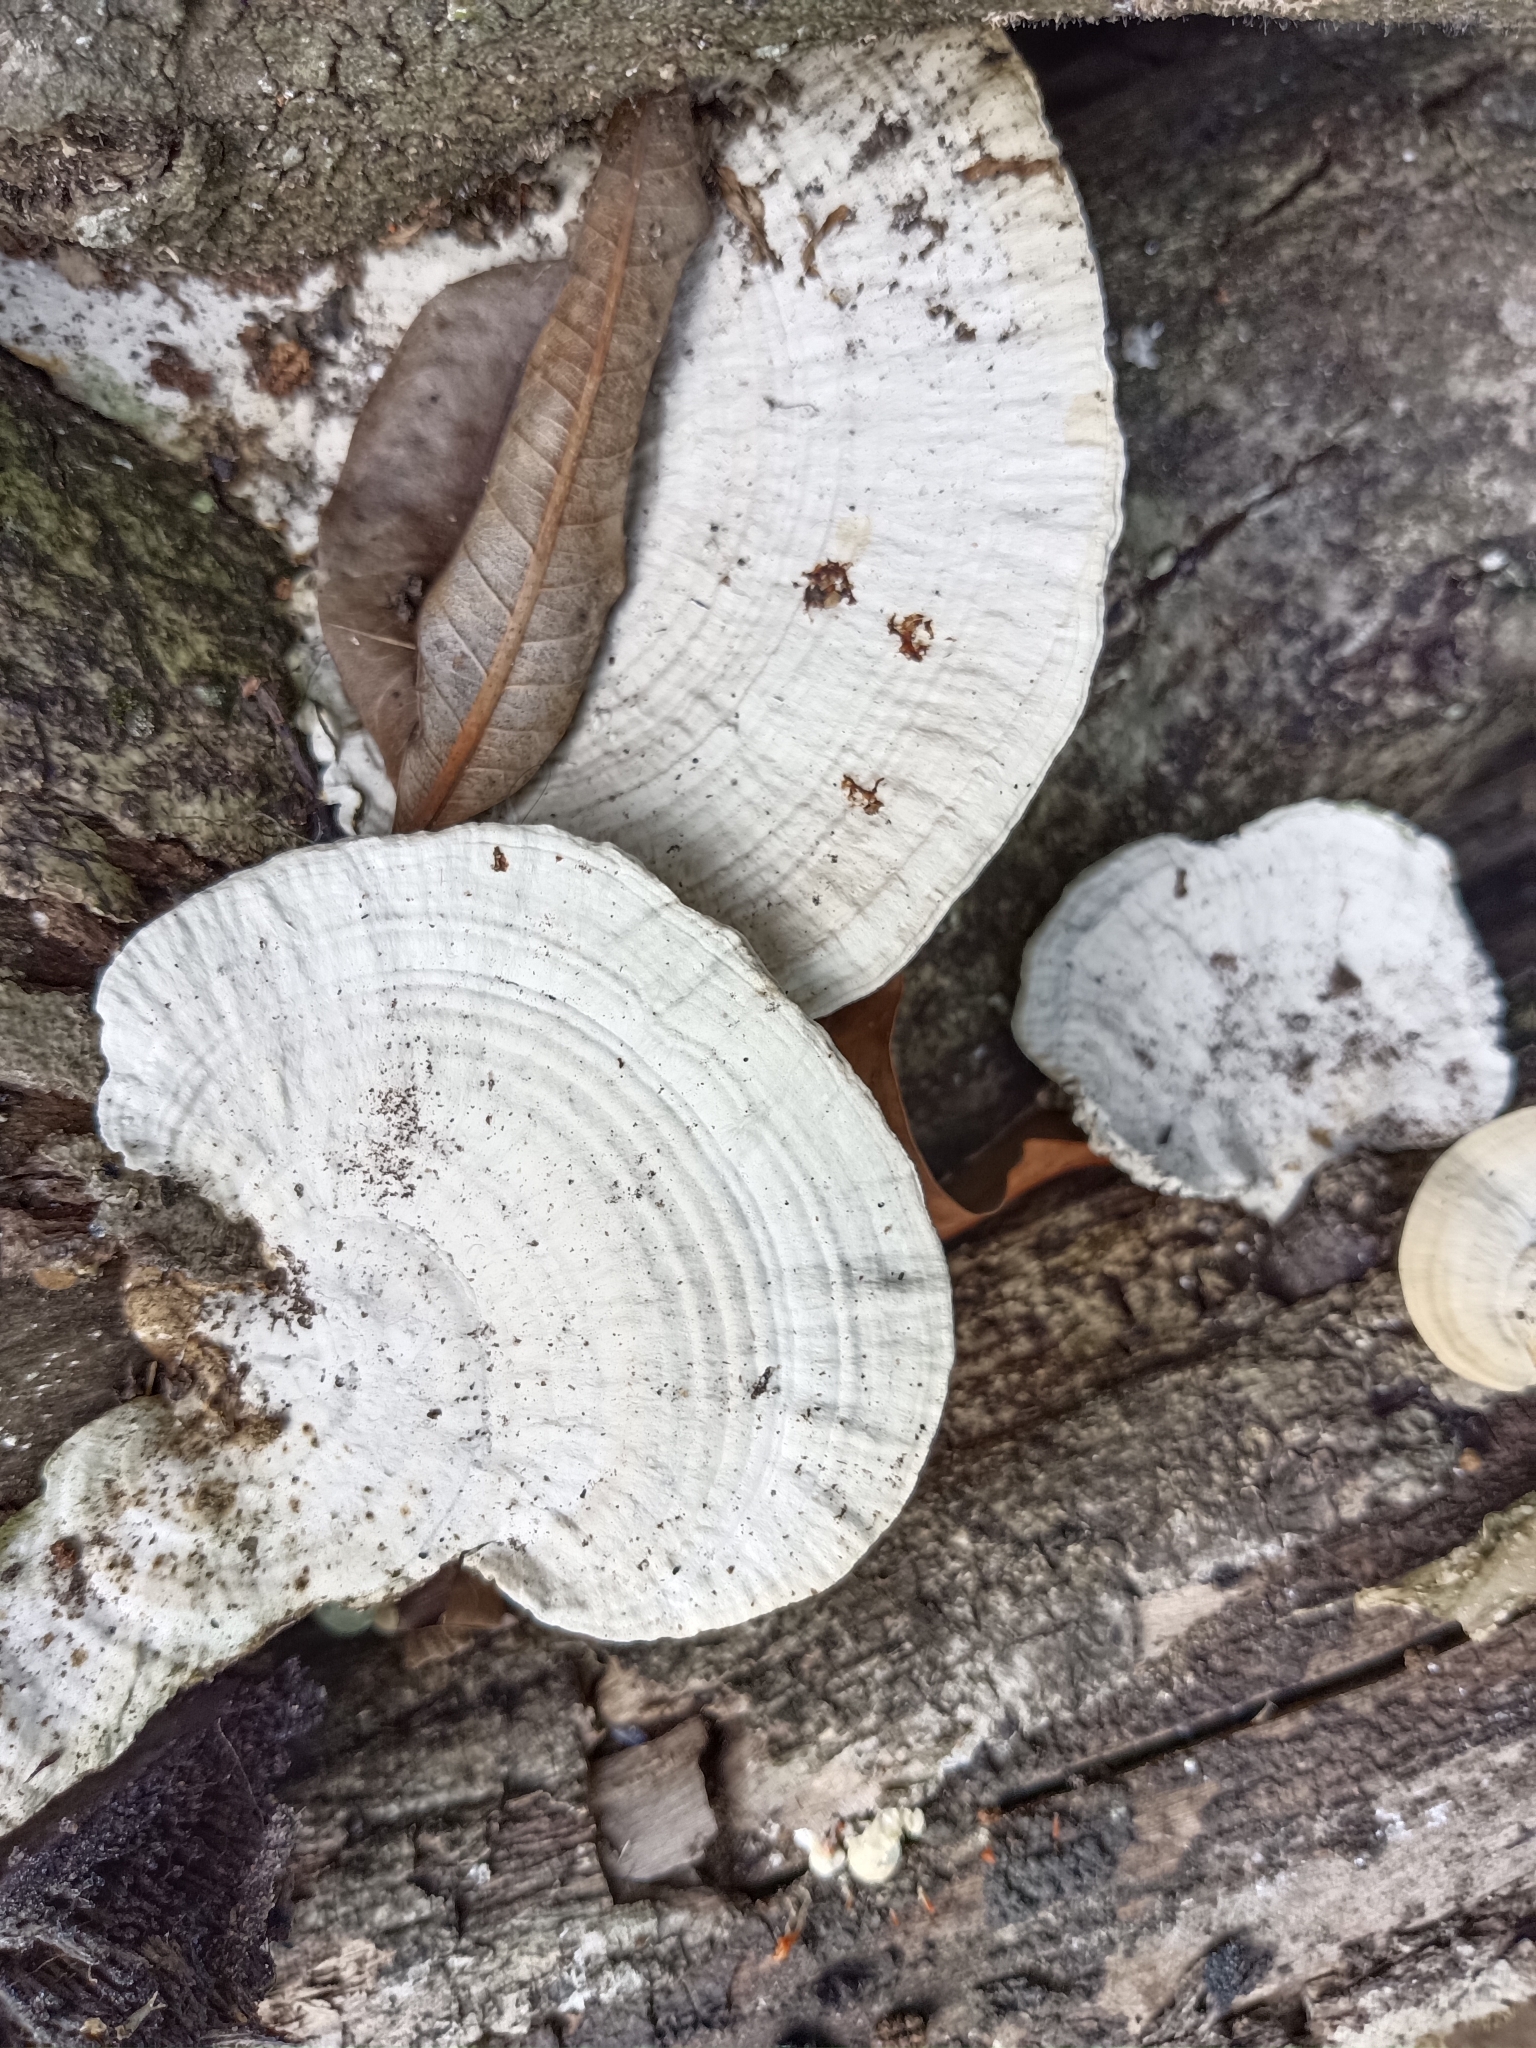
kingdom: Fungi
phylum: Basidiomycota
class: Agaricomycetes
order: Polyporales
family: Polyporaceae
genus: Cubamyces
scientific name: Cubamyces flavidus
